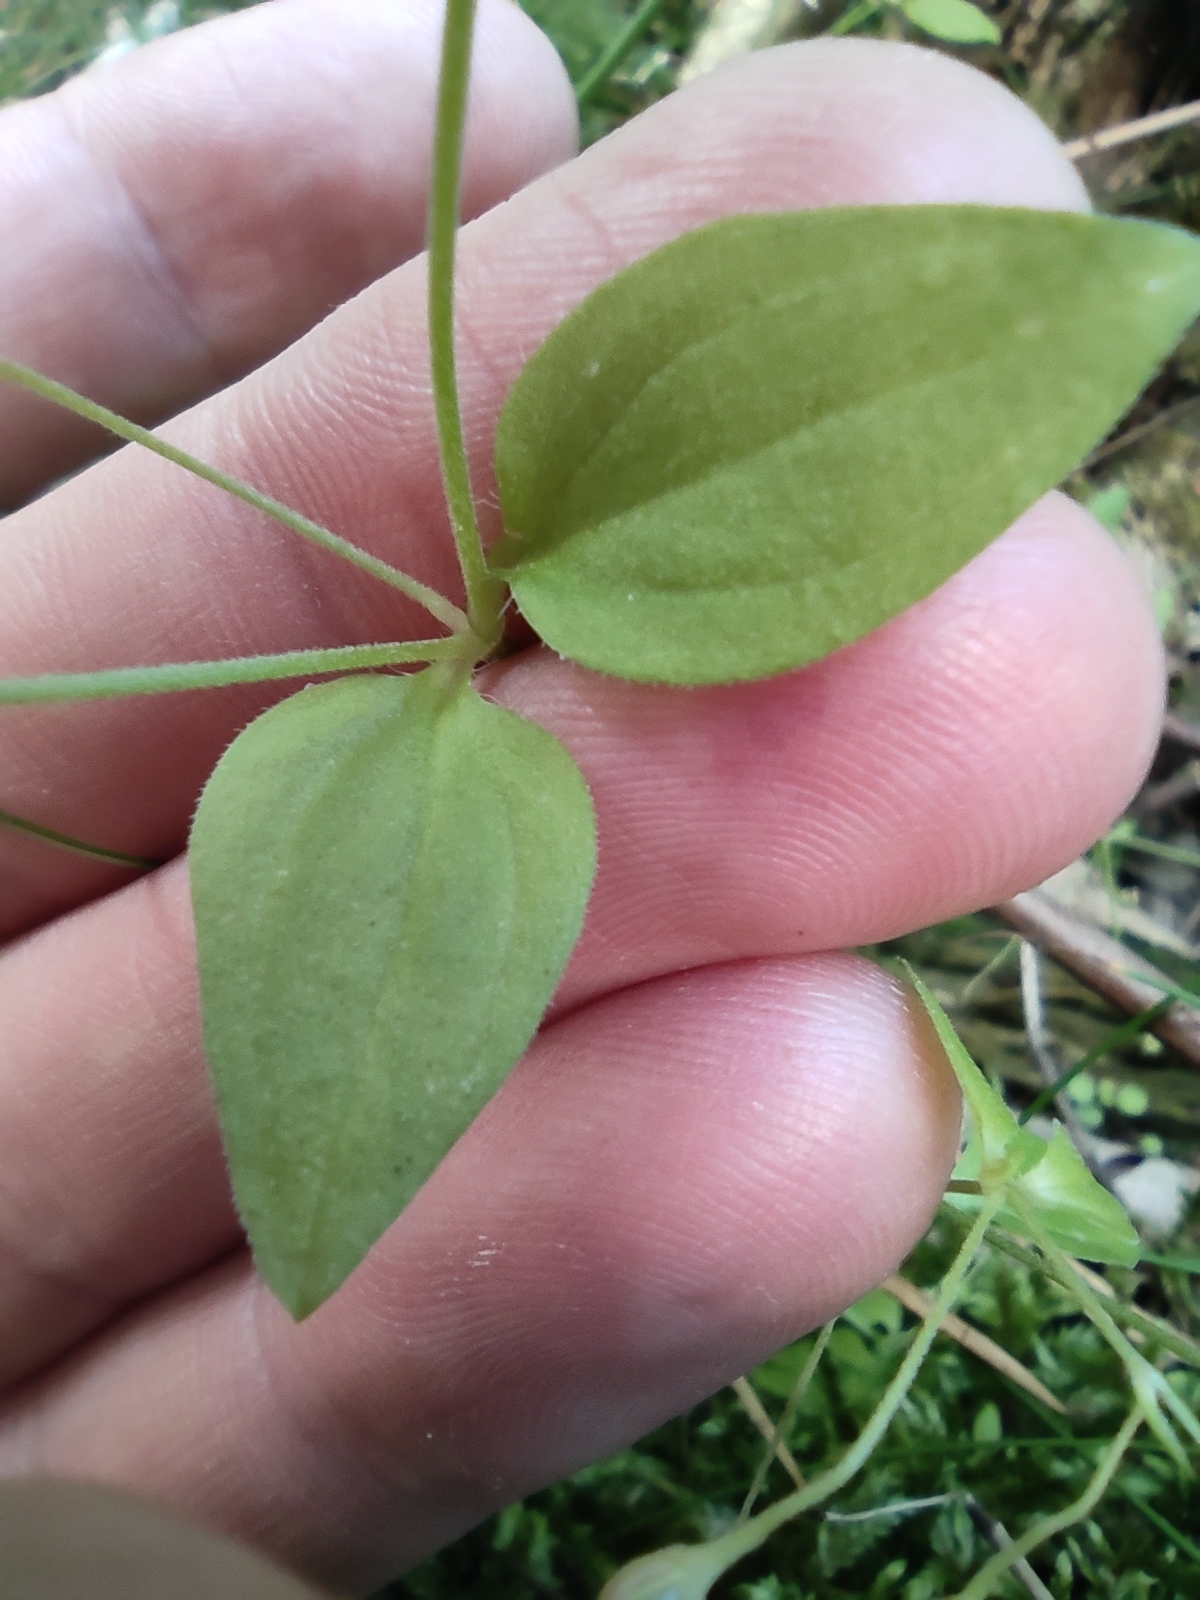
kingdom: Plantae
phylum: Tracheophyta
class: Magnoliopsida
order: Caryophyllales
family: Caryophyllaceae
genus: Moehringia
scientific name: Moehringia trinervia
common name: Three-nerved sandwort
